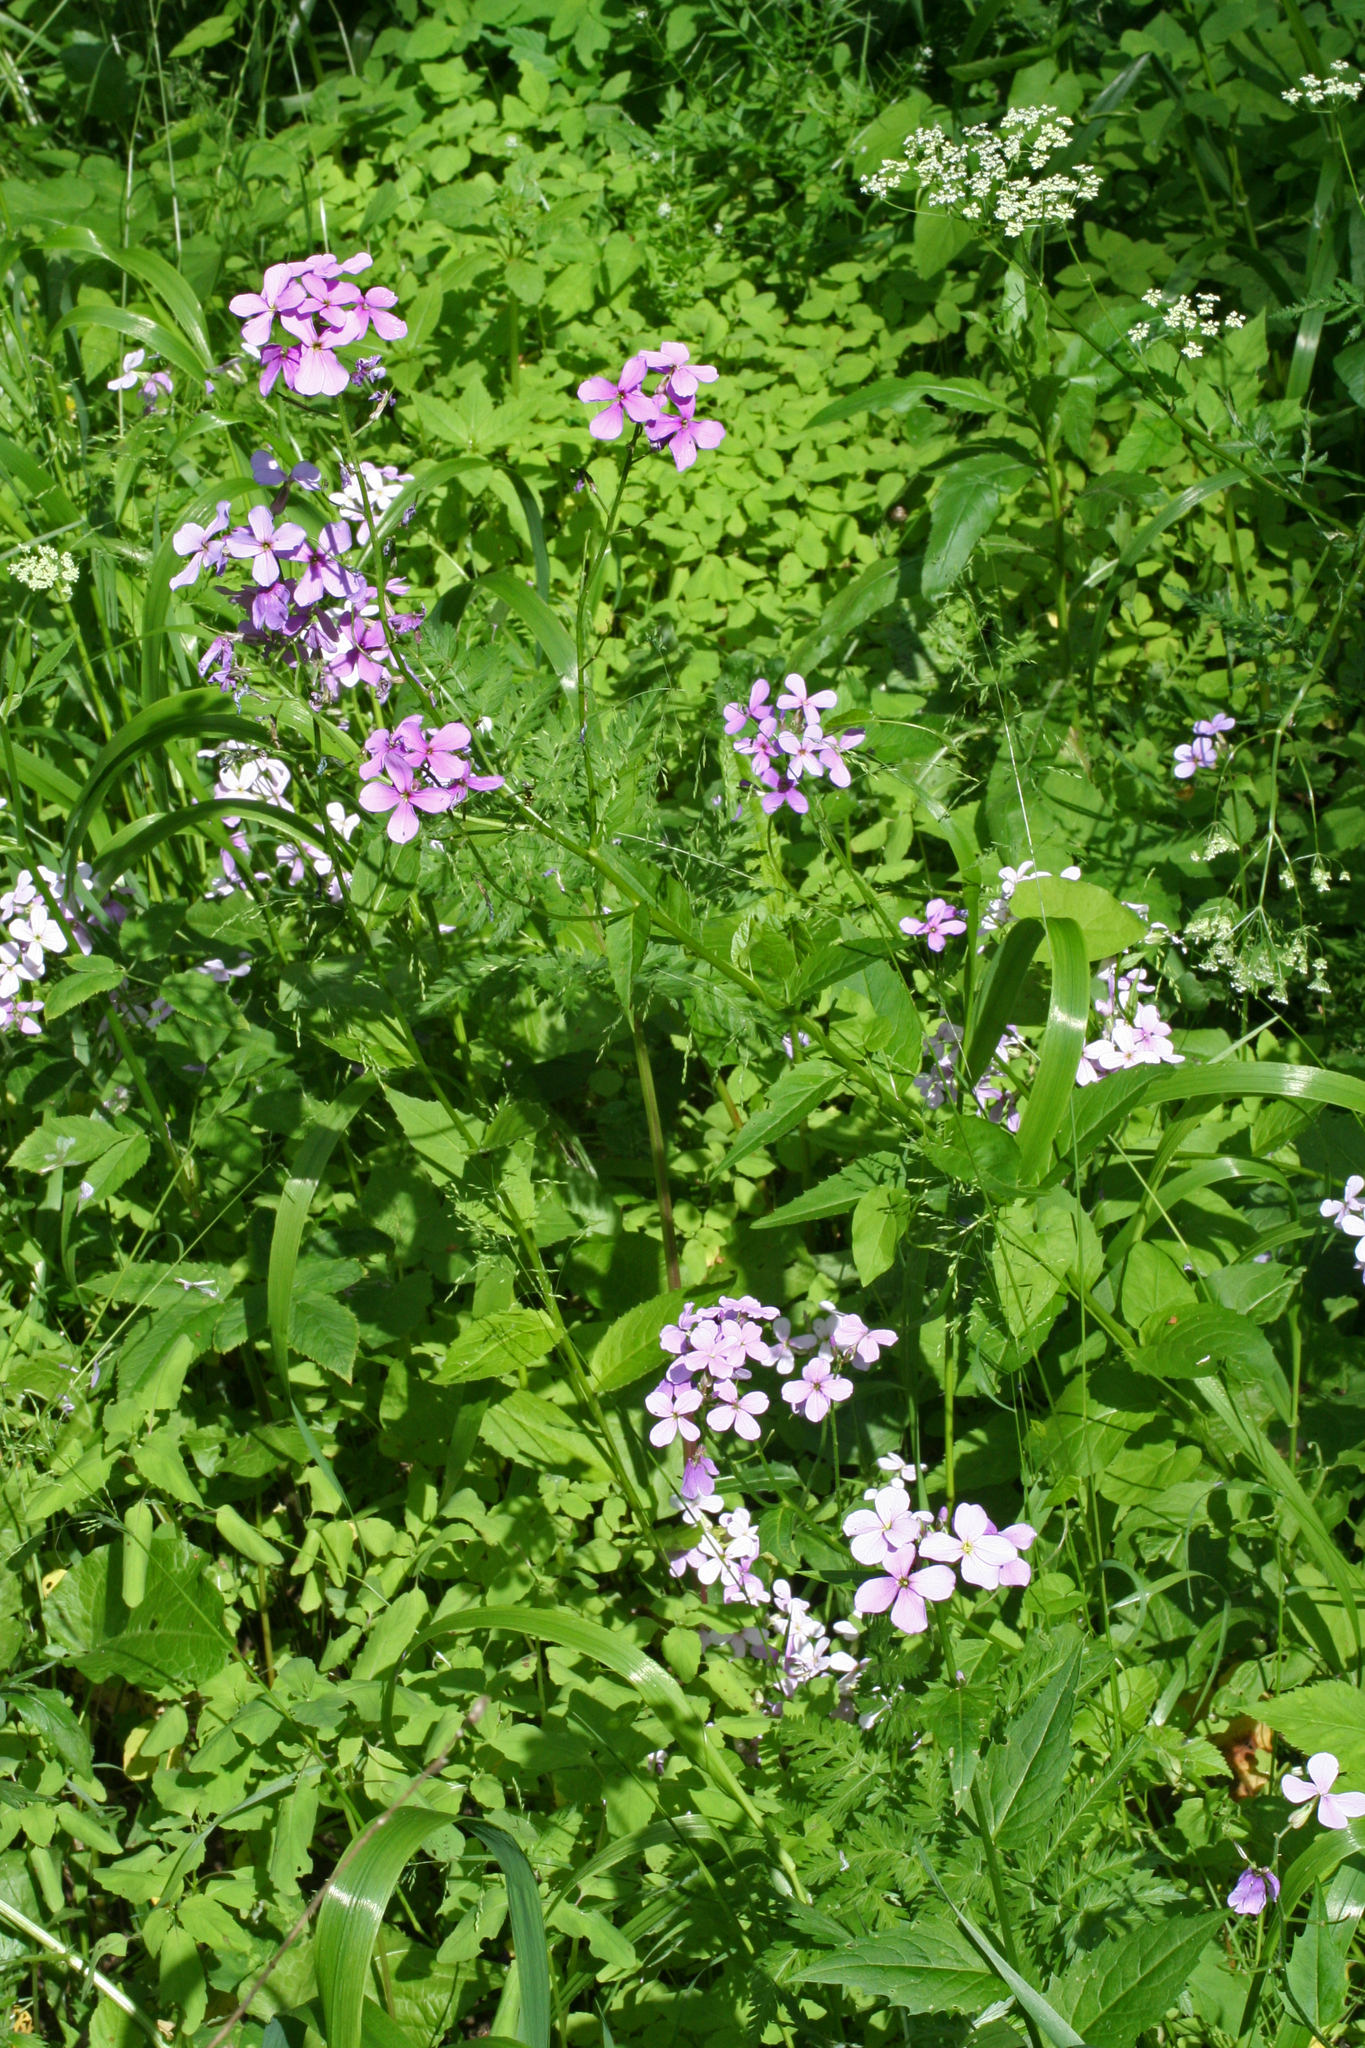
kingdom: Plantae
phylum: Tracheophyta
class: Magnoliopsida
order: Brassicales
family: Brassicaceae
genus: Hesperis
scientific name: Hesperis matronalis
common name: Dame's-violet
